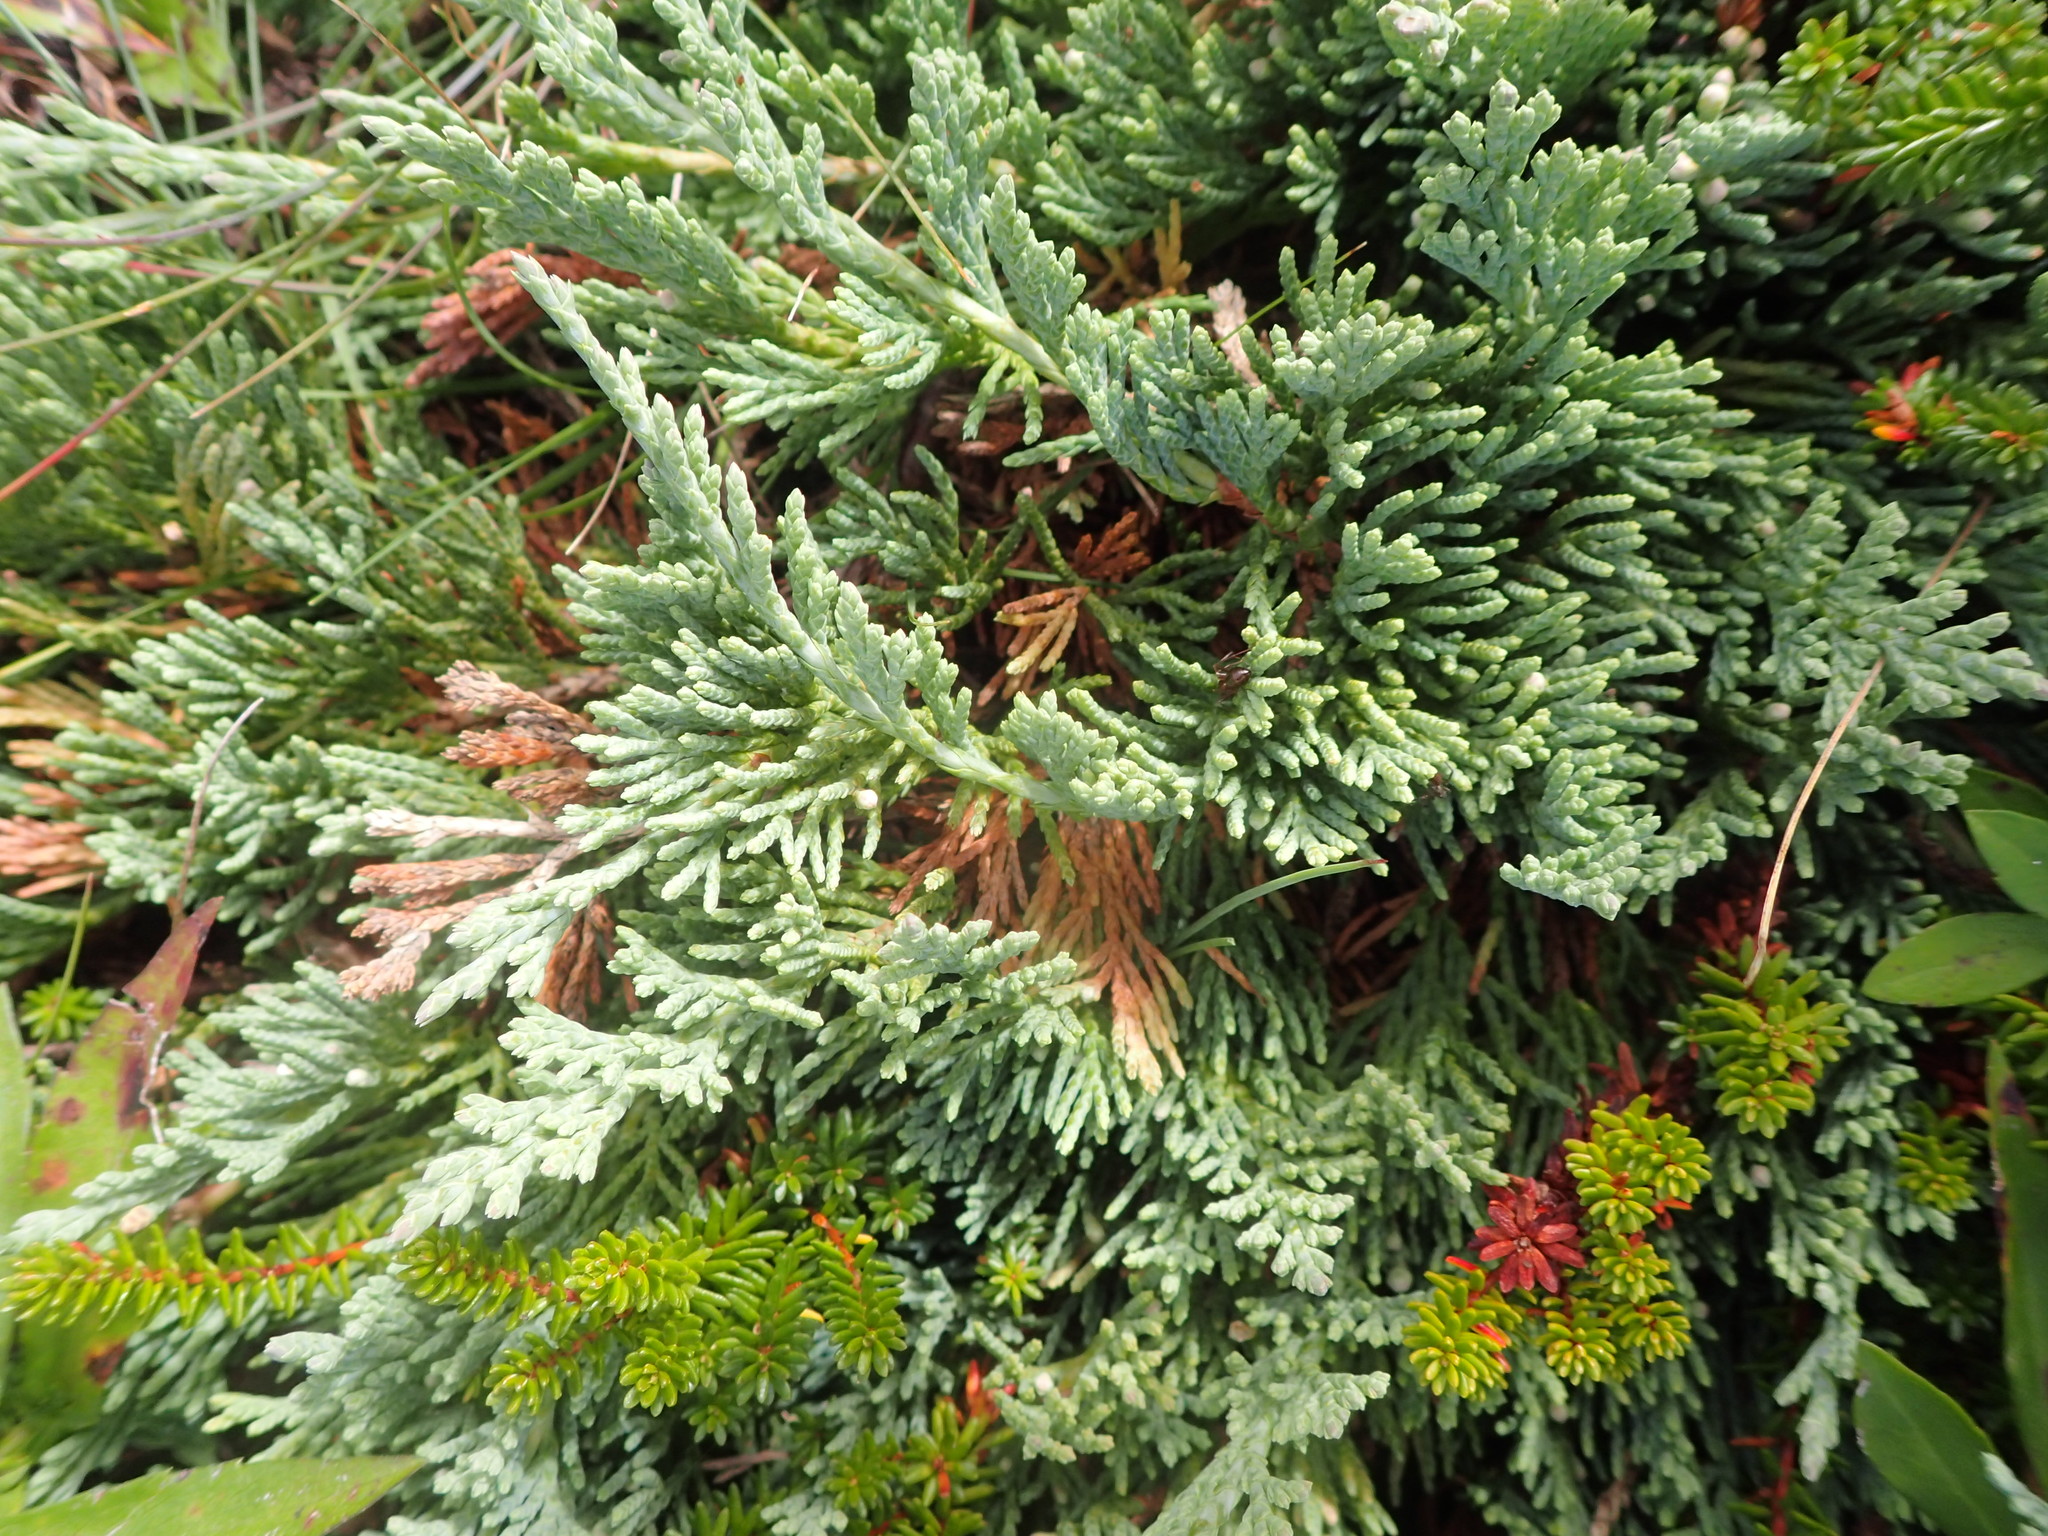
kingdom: Plantae
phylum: Tracheophyta
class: Pinopsida
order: Pinales
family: Cupressaceae
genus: Juniperus
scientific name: Juniperus horizontalis
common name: Creeping juniper
